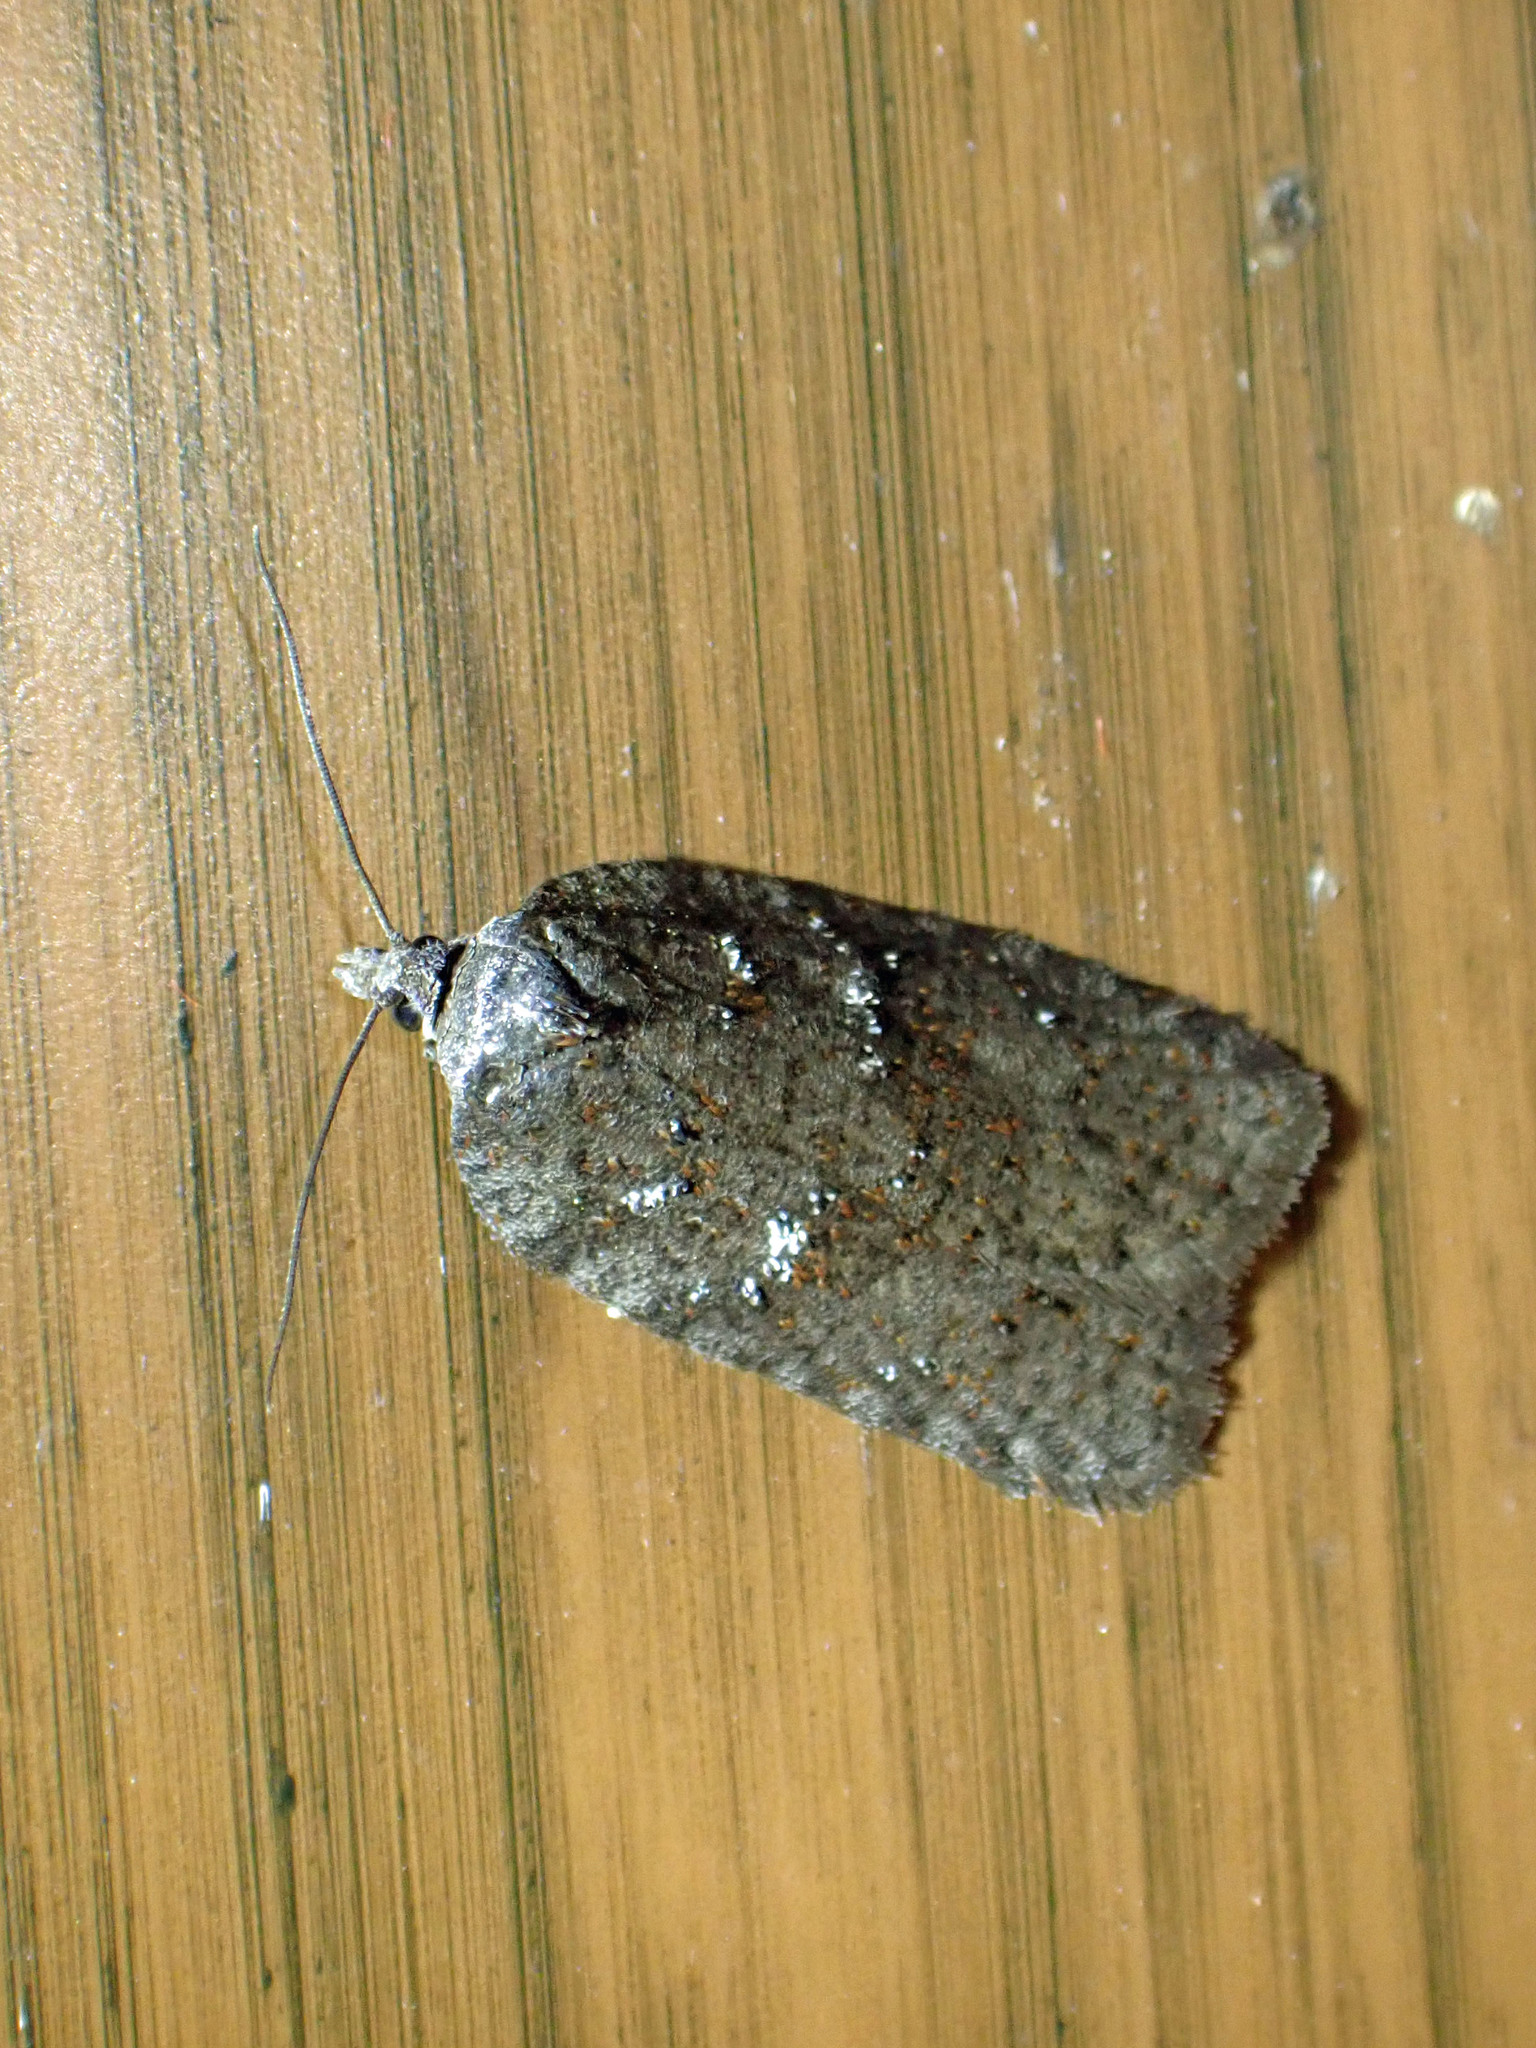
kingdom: Animalia
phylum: Arthropoda
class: Insecta
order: Lepidoptera
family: Tortricidae
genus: Acleris
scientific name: Acleris caliginosana
